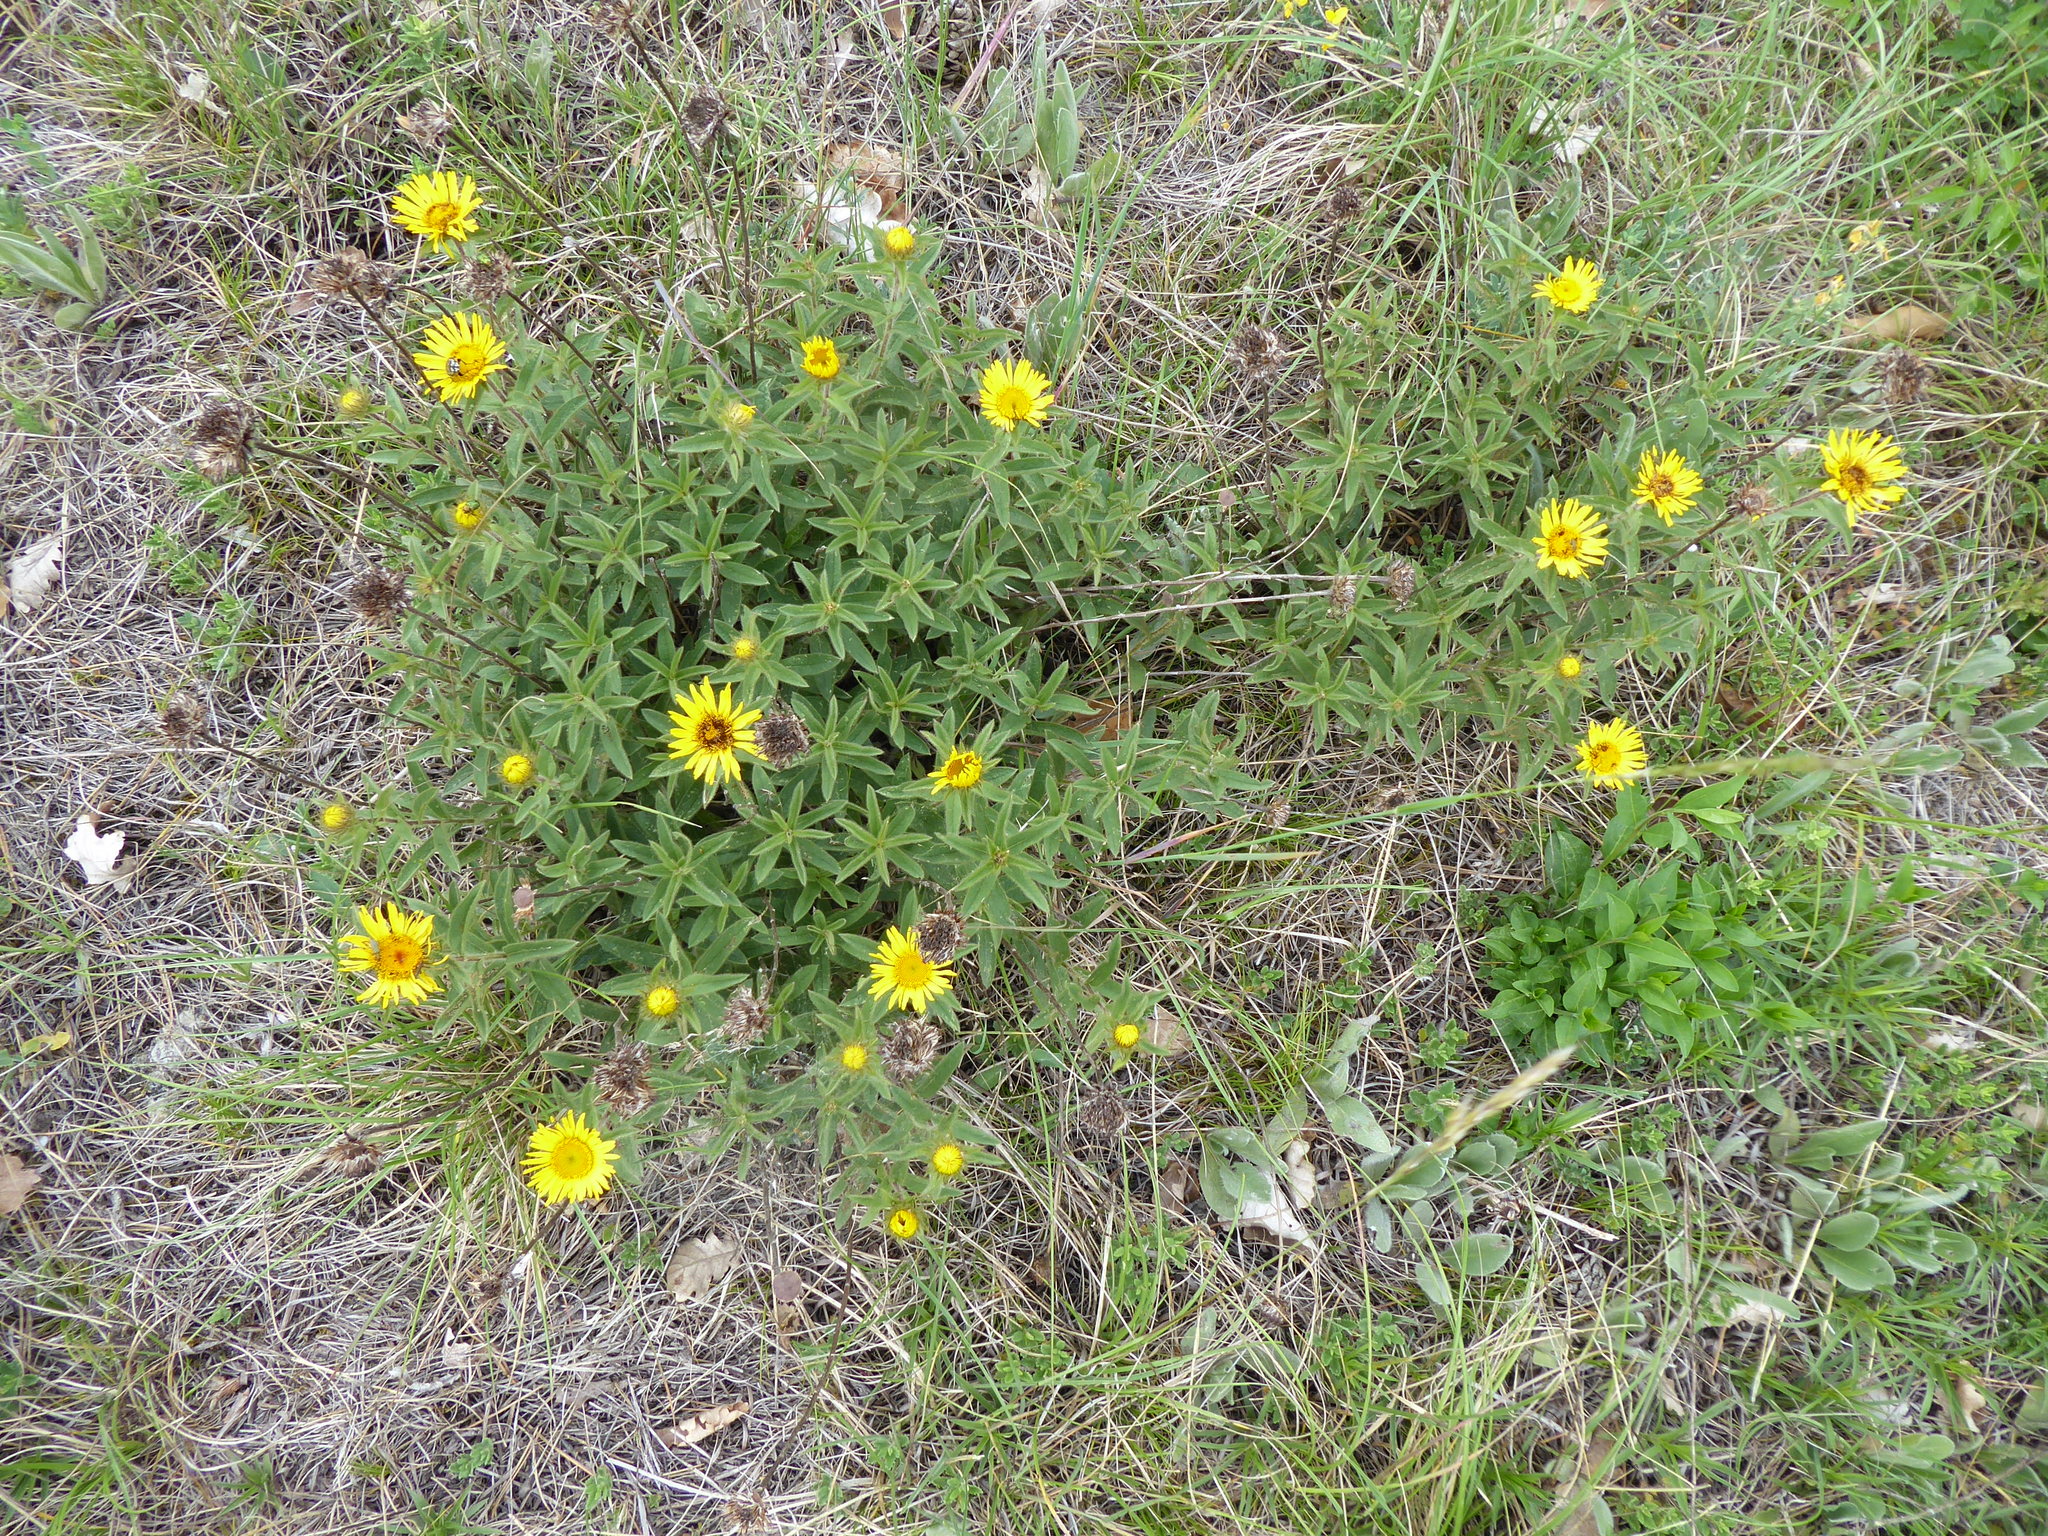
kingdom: Plantae
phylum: Tracheophyta
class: Magnoliopsida
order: Asterales
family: Asteraceae
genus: Pentanema
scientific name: Pentanema hirtum
